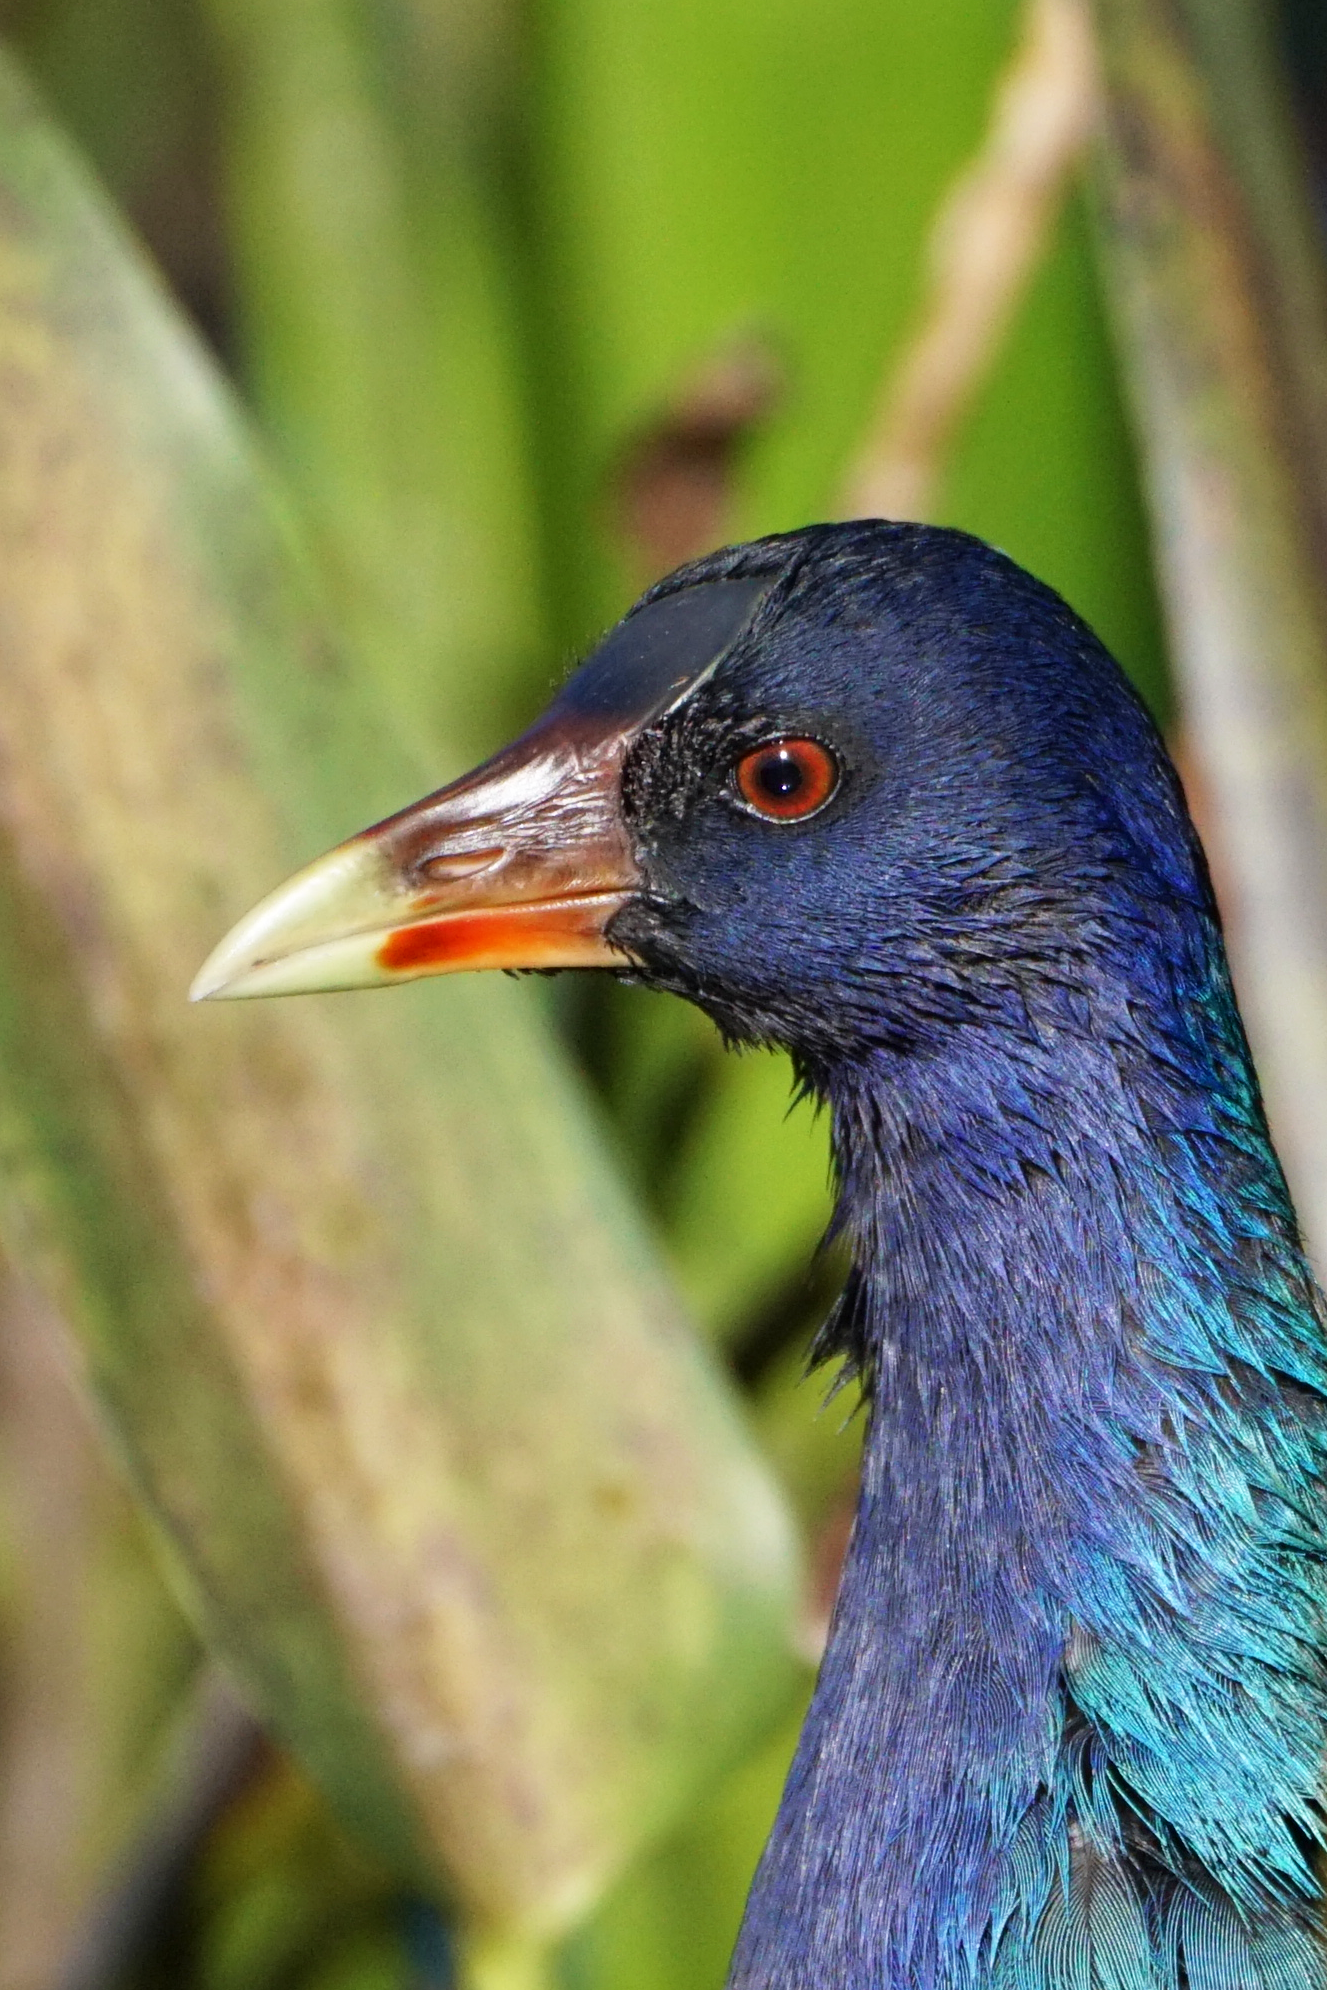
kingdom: Animalia
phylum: Chordata
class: Aves
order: Gruiformes
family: Rallidae
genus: Porphyrio
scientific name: Porphyrio martinica
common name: Purple gallinule
